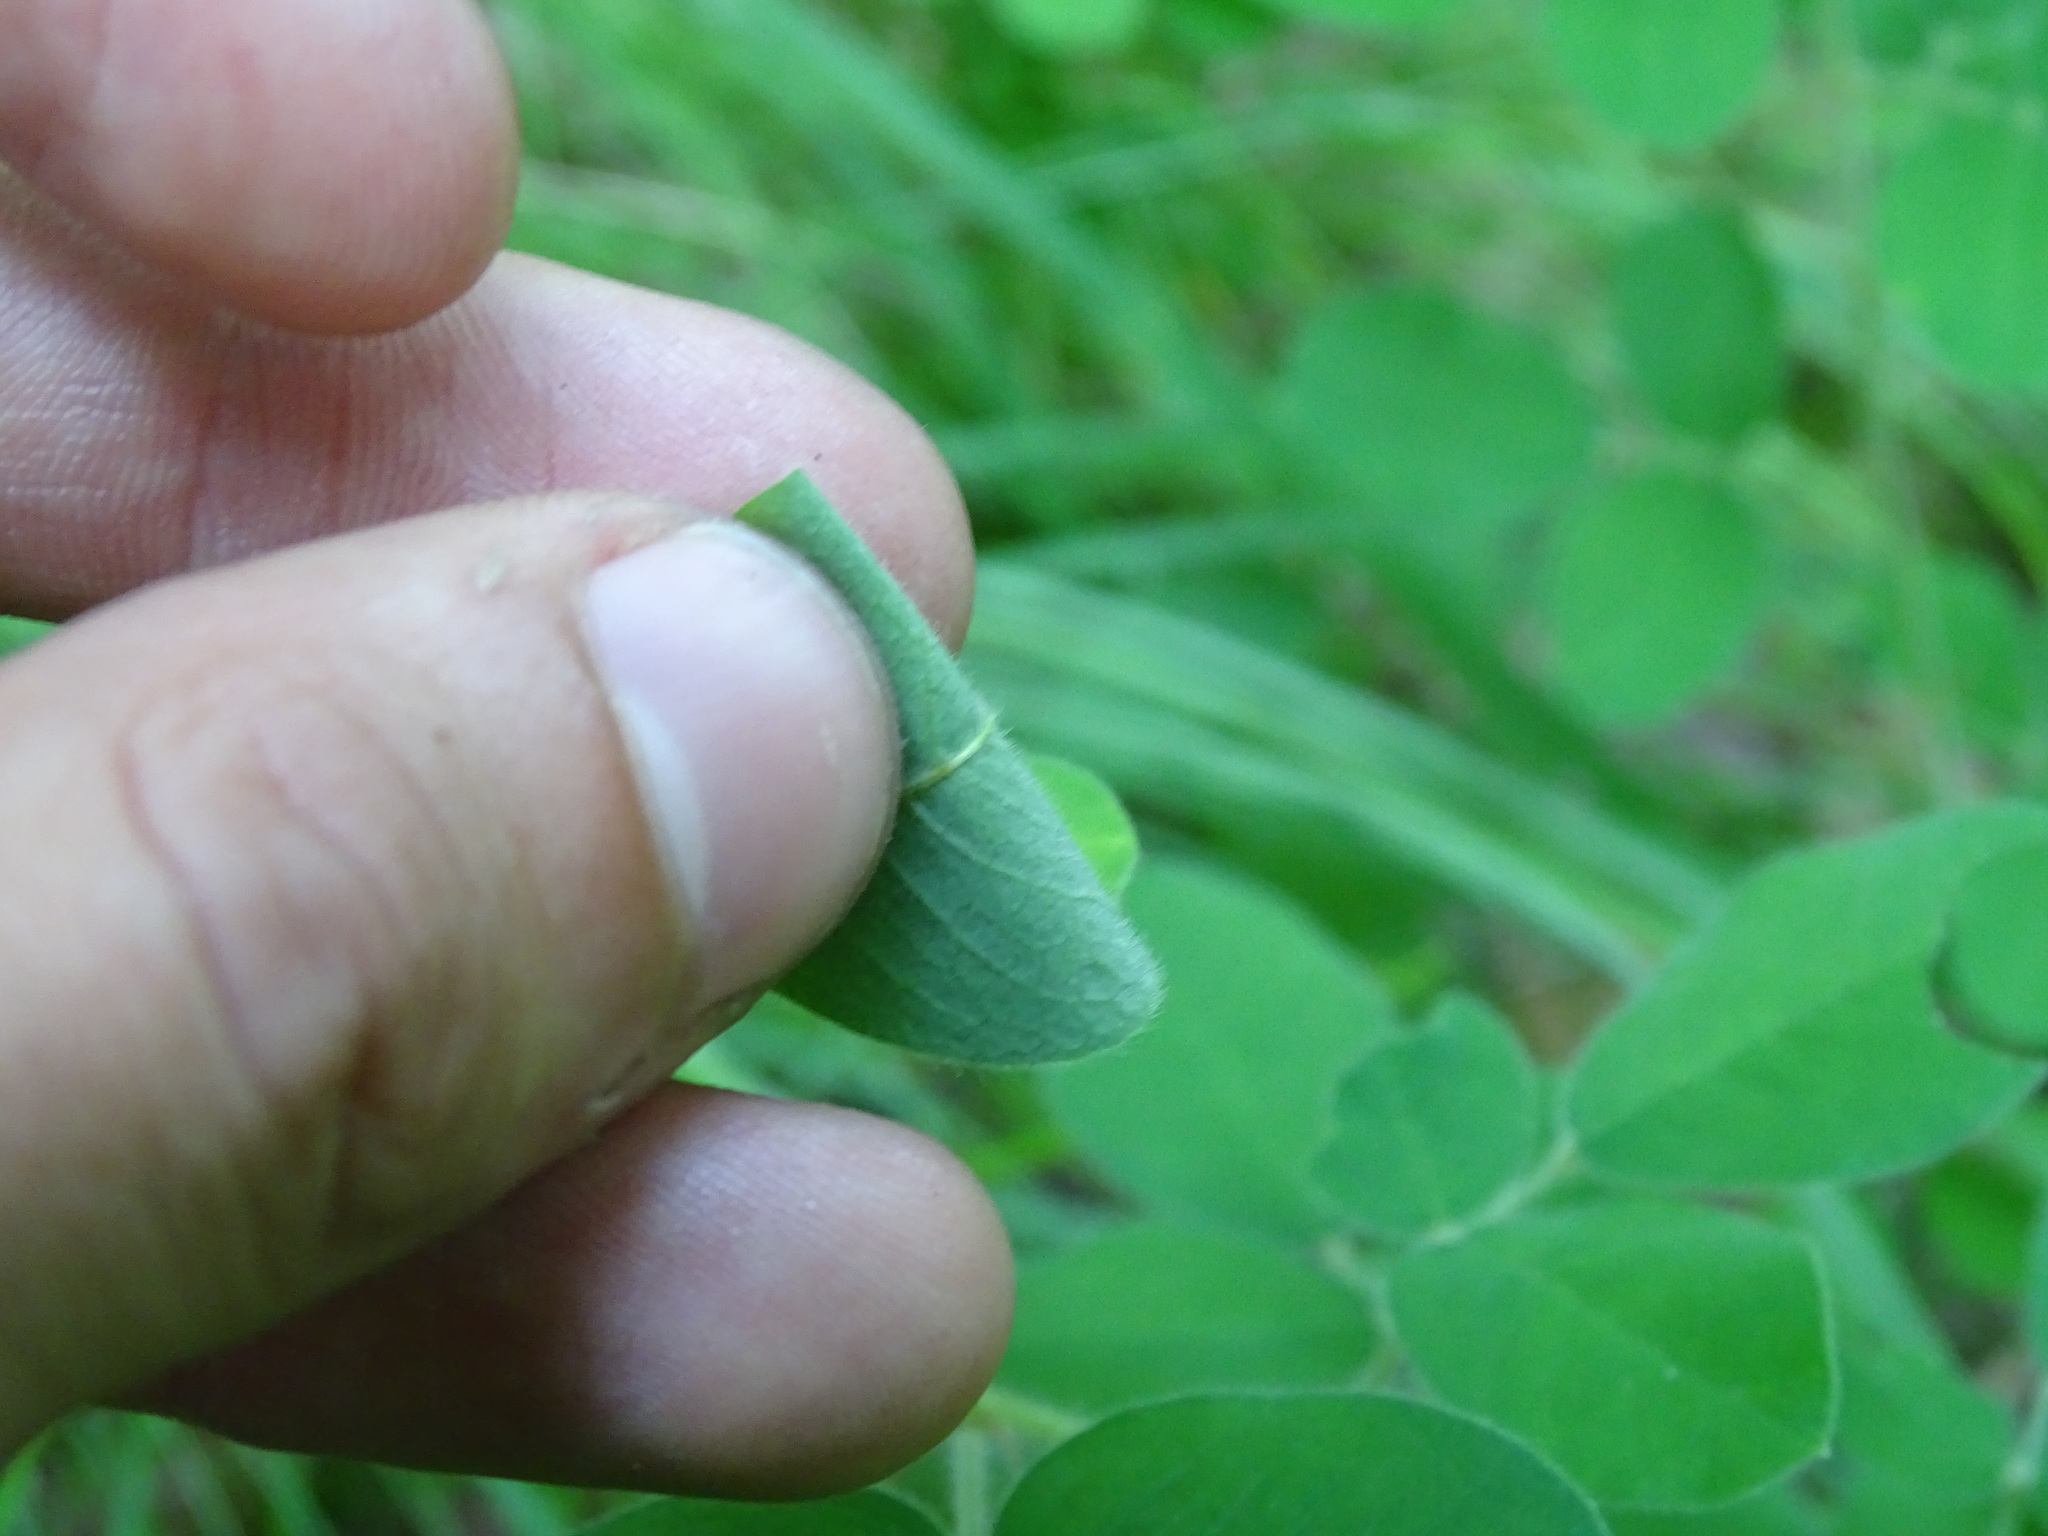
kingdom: Plantae
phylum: Tracheophyta
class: Magnoliopsida
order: Fabales
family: Fabaceae
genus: Lespedeza
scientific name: Lespedeza hirta
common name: Hairy lespedeza
